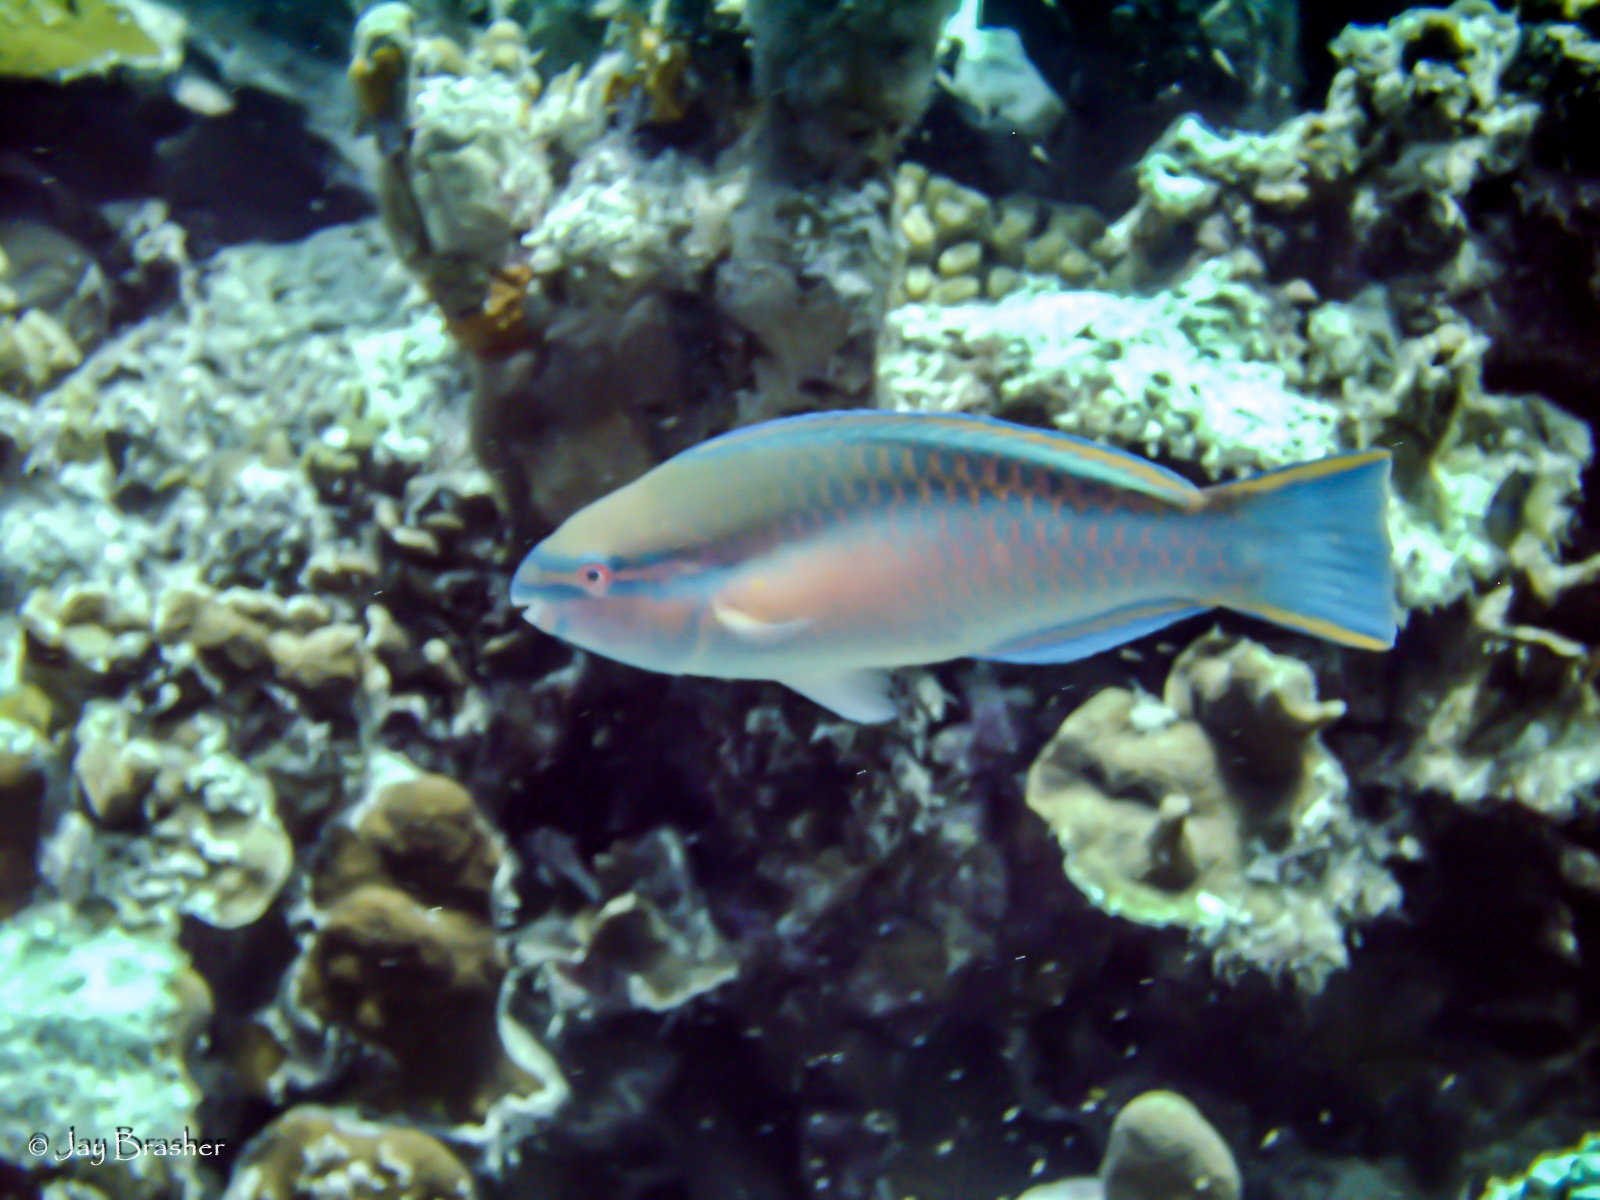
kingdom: Animalia
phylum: Chordata
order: Perciformes
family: Scaridae
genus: Scarus
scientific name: Scarus taeniopterus
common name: Princess parrotfish
